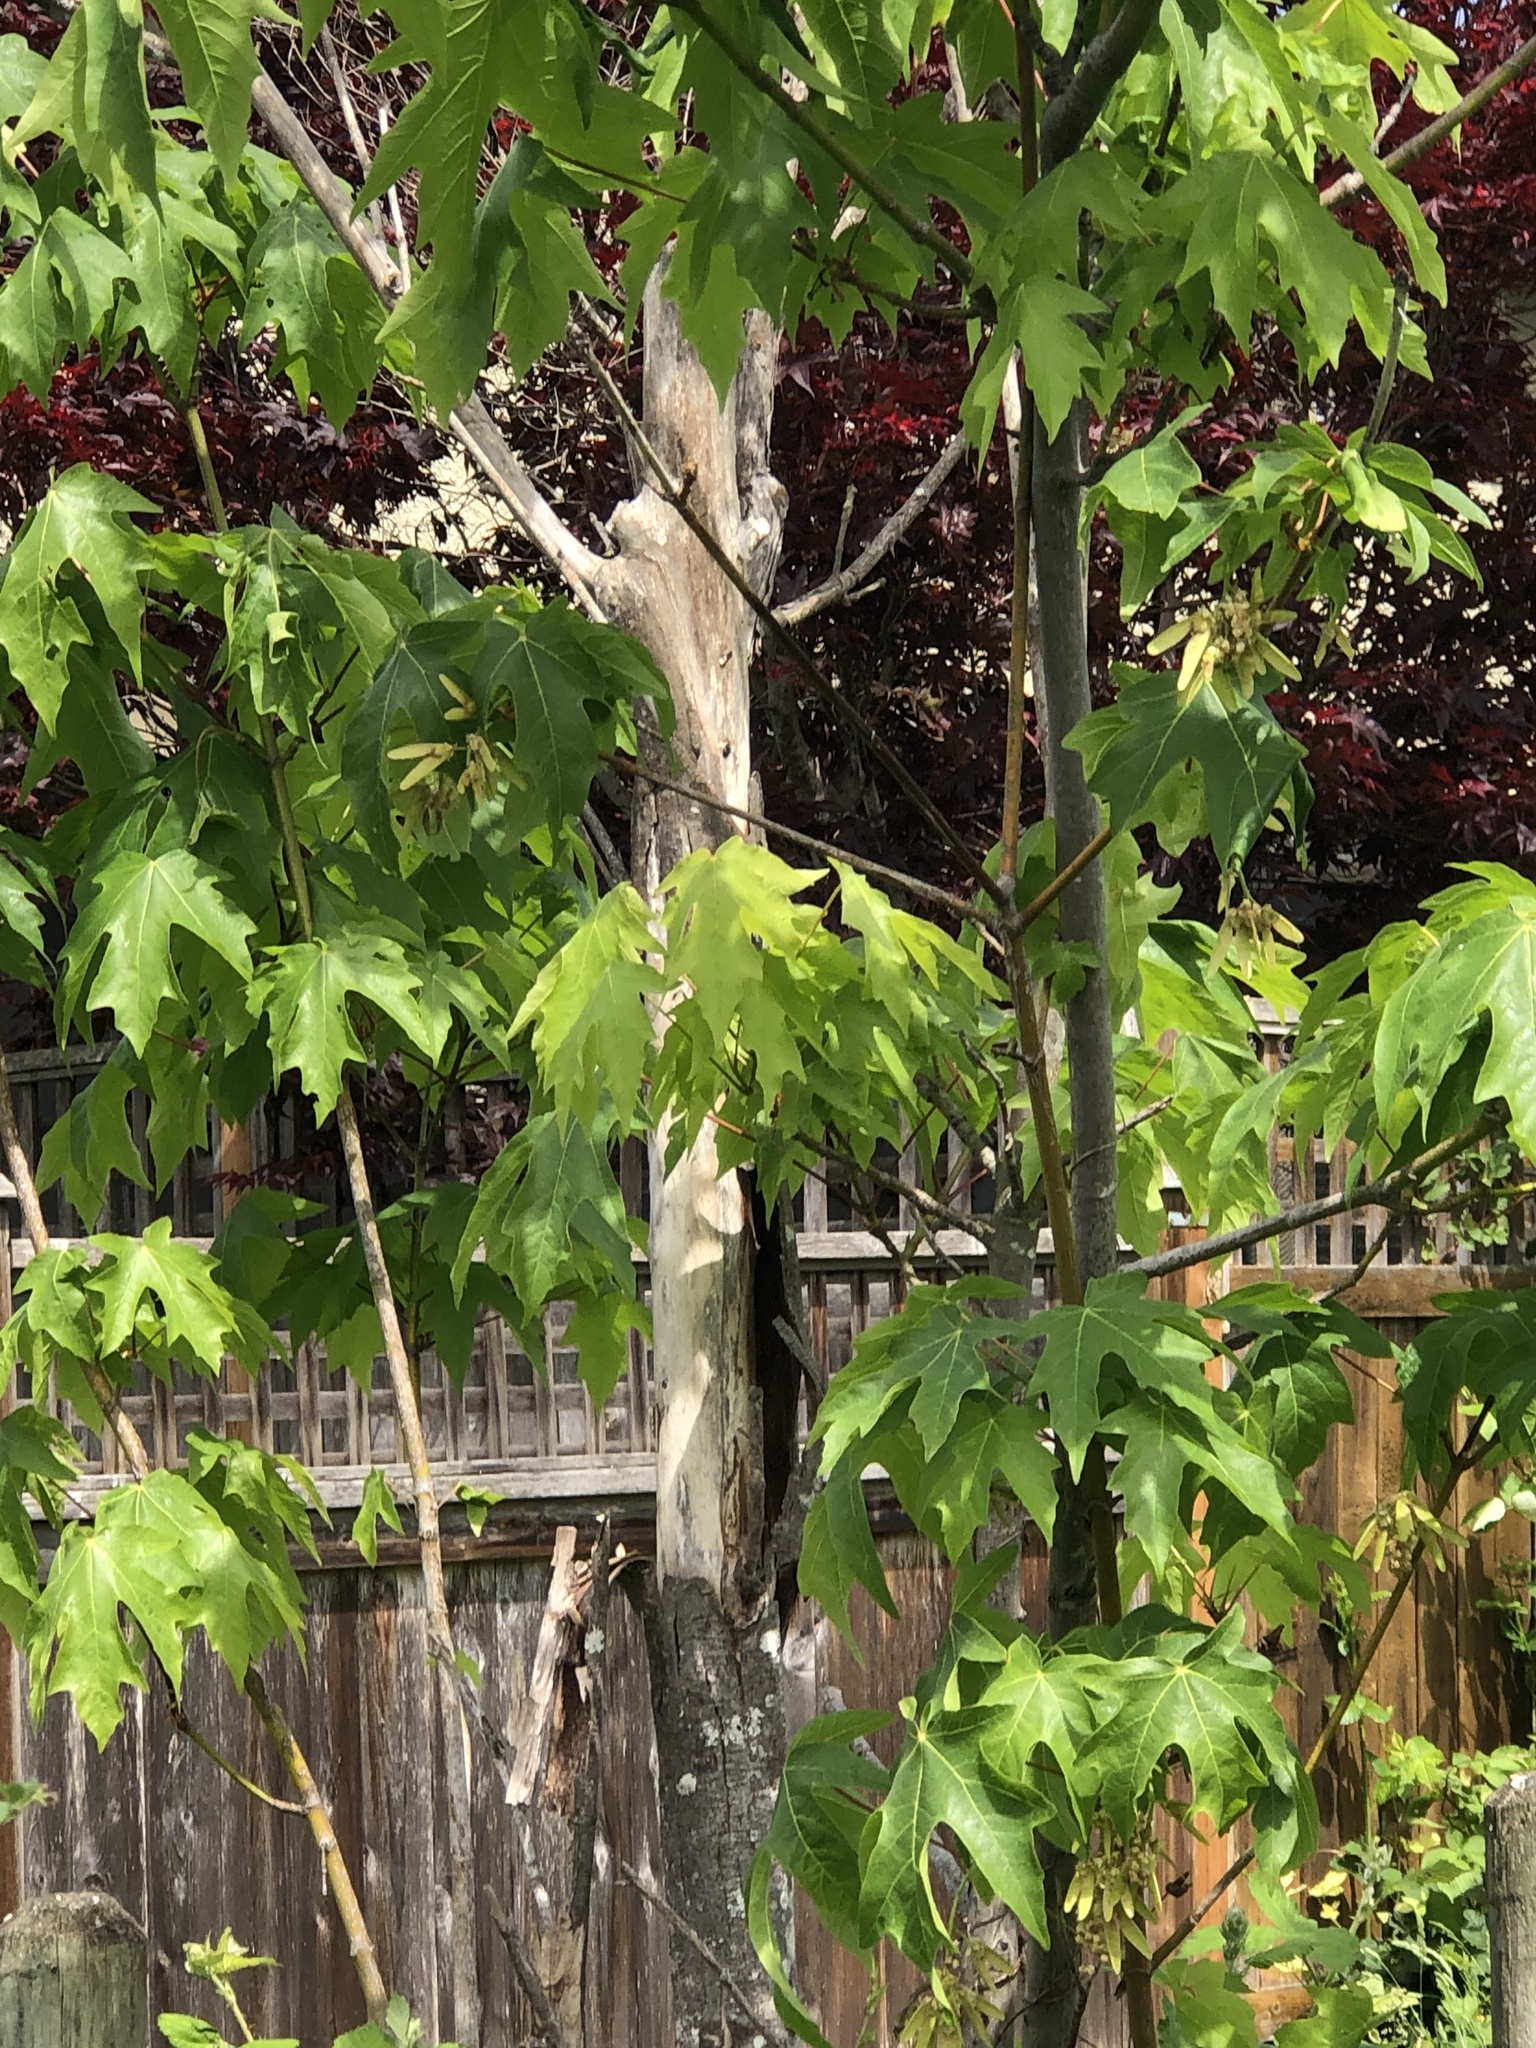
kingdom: Plantae
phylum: Tracheophyta
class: Magnoliopsida
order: Sapindales
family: Sapindaceae
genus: Acer
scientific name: Acer macrophyllum
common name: Oregon maple
